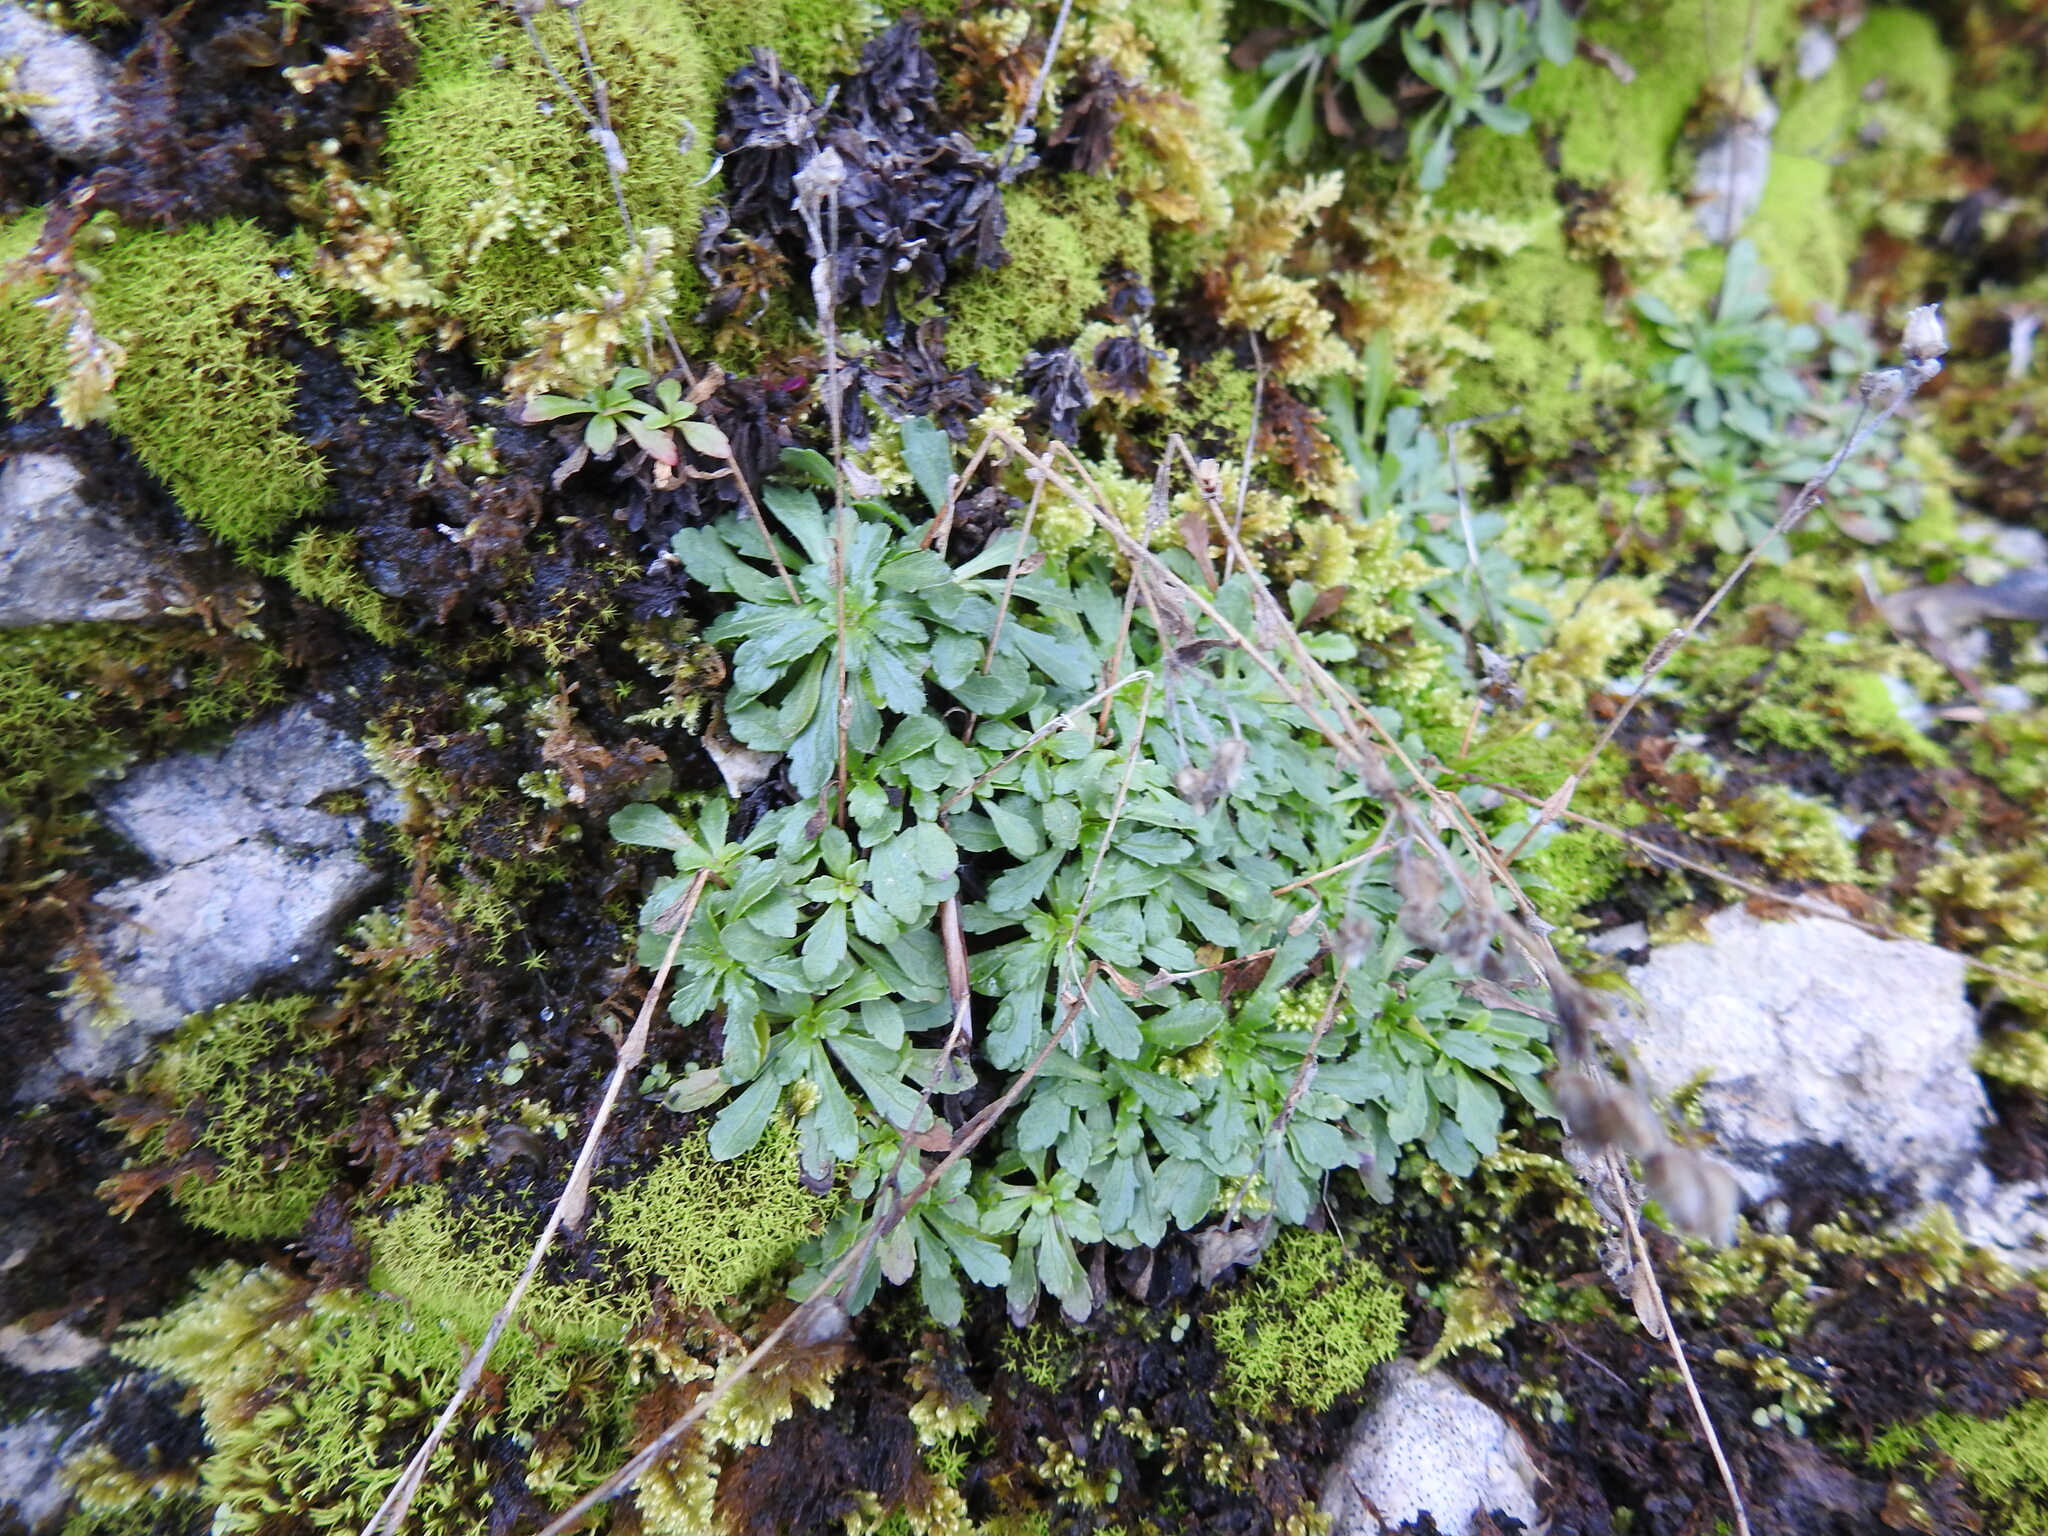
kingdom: Plantae
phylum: Tracheophyta
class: Magnoliopsida
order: Lamiales
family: Plantaginaceae
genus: Erinus
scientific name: Erinus alpinus
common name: Fairy foxglove
